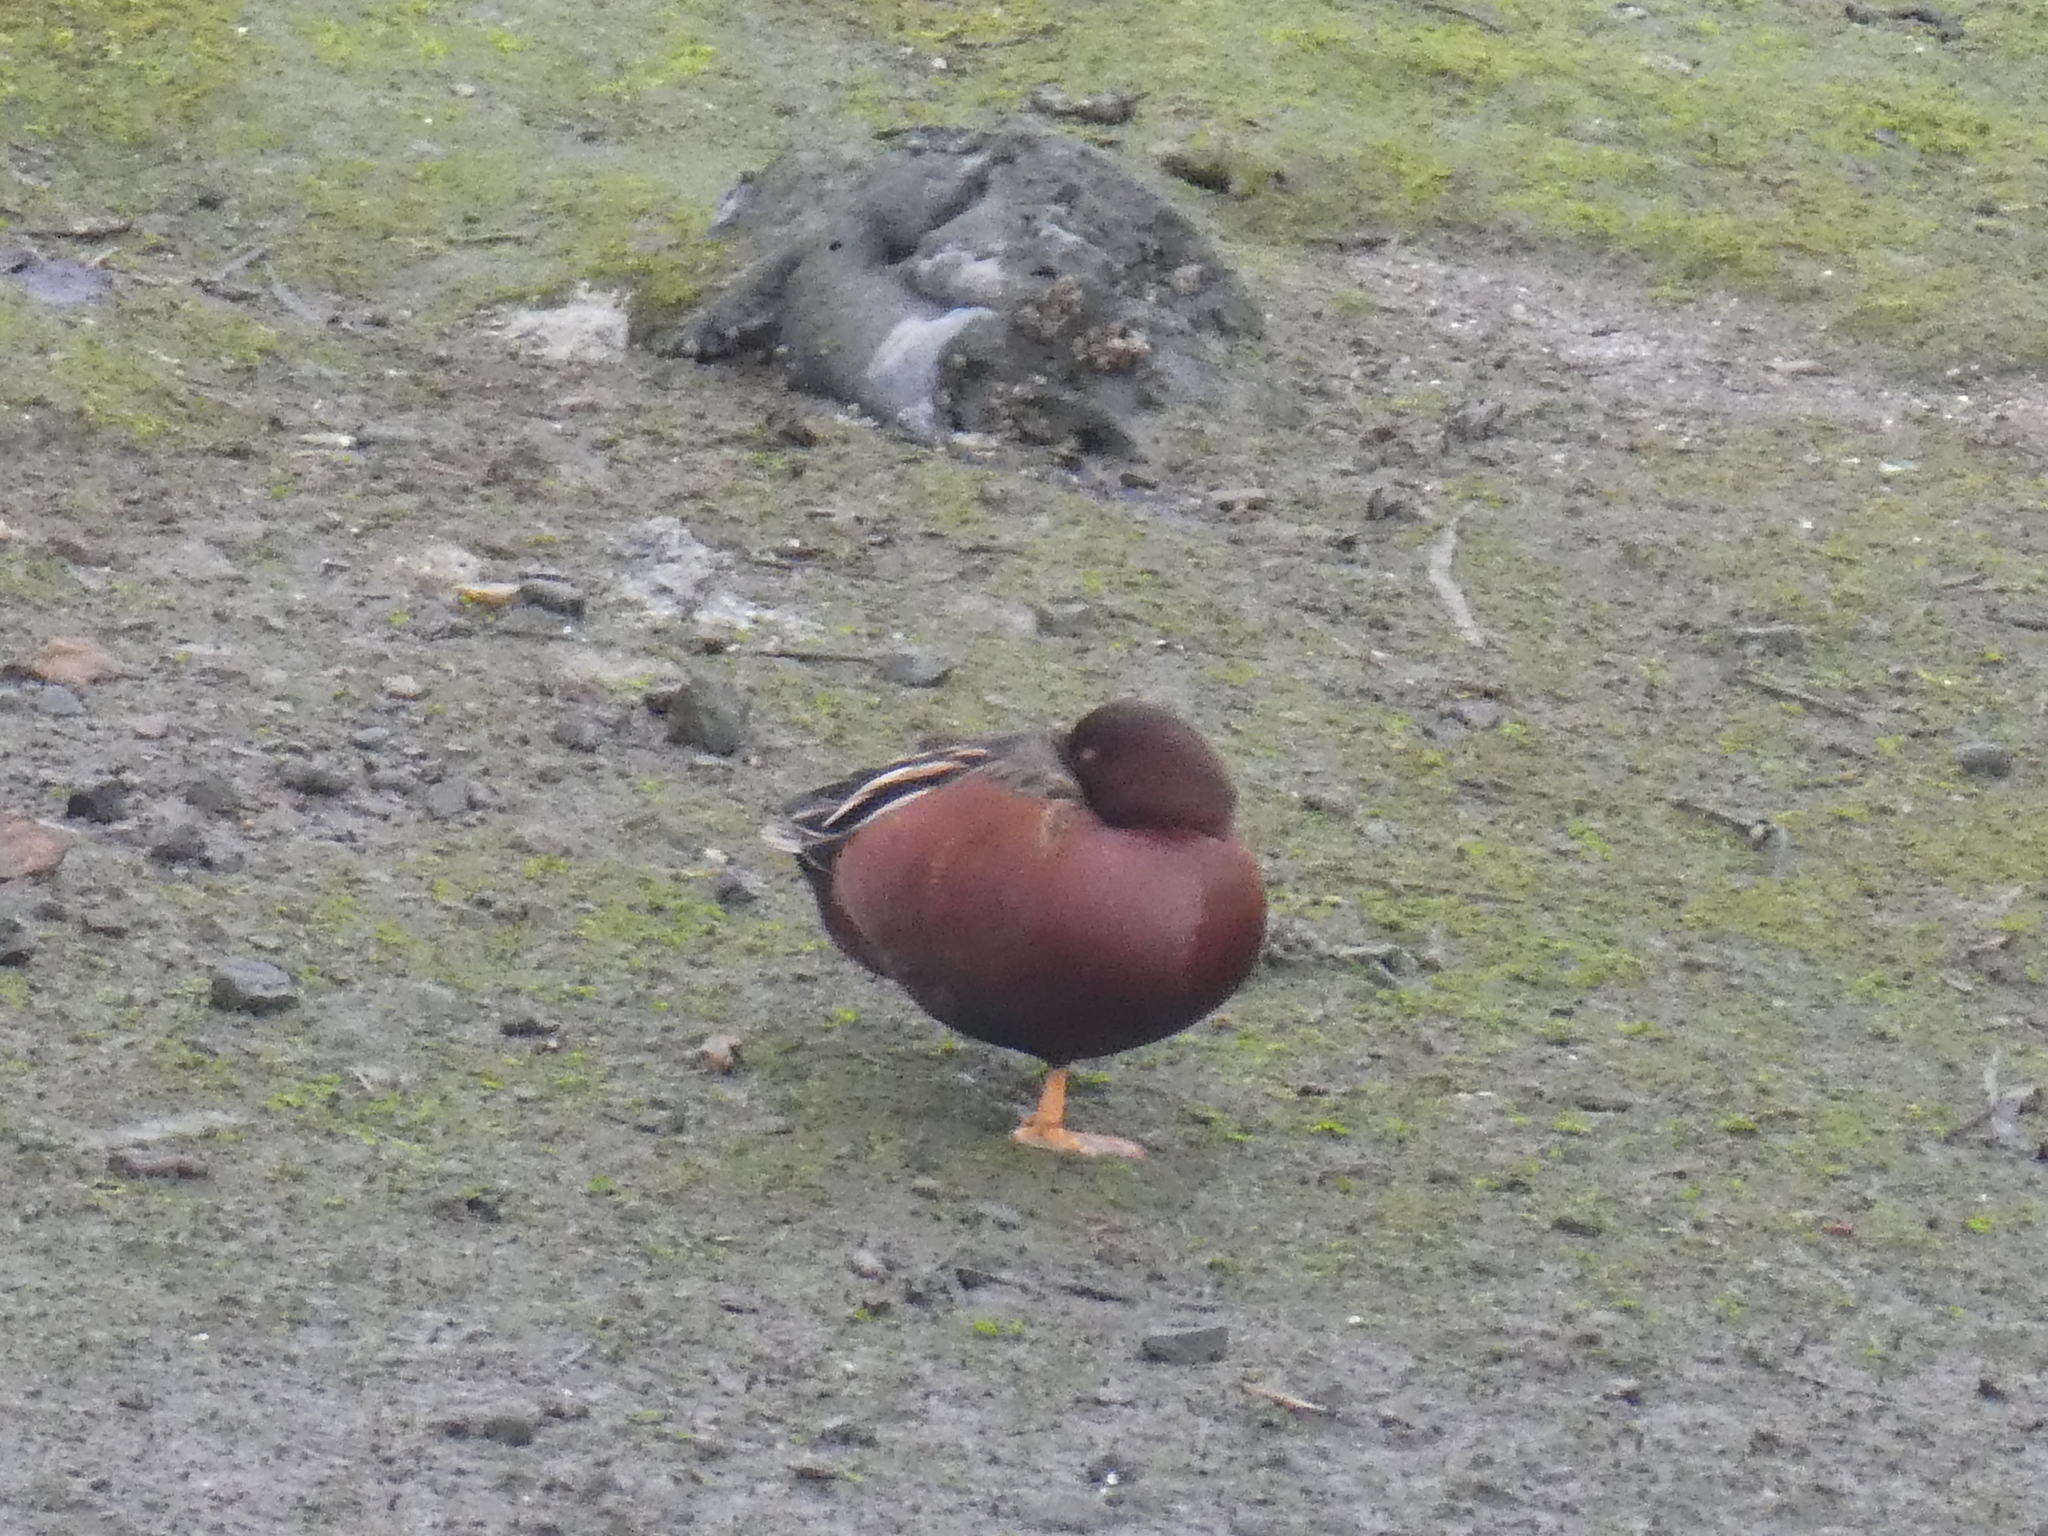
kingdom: Animalia
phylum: Chordata
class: Aves
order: Anseriformes
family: Anatidae
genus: Spatula
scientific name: Spatula cyanoptera
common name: Cinnamon teal
